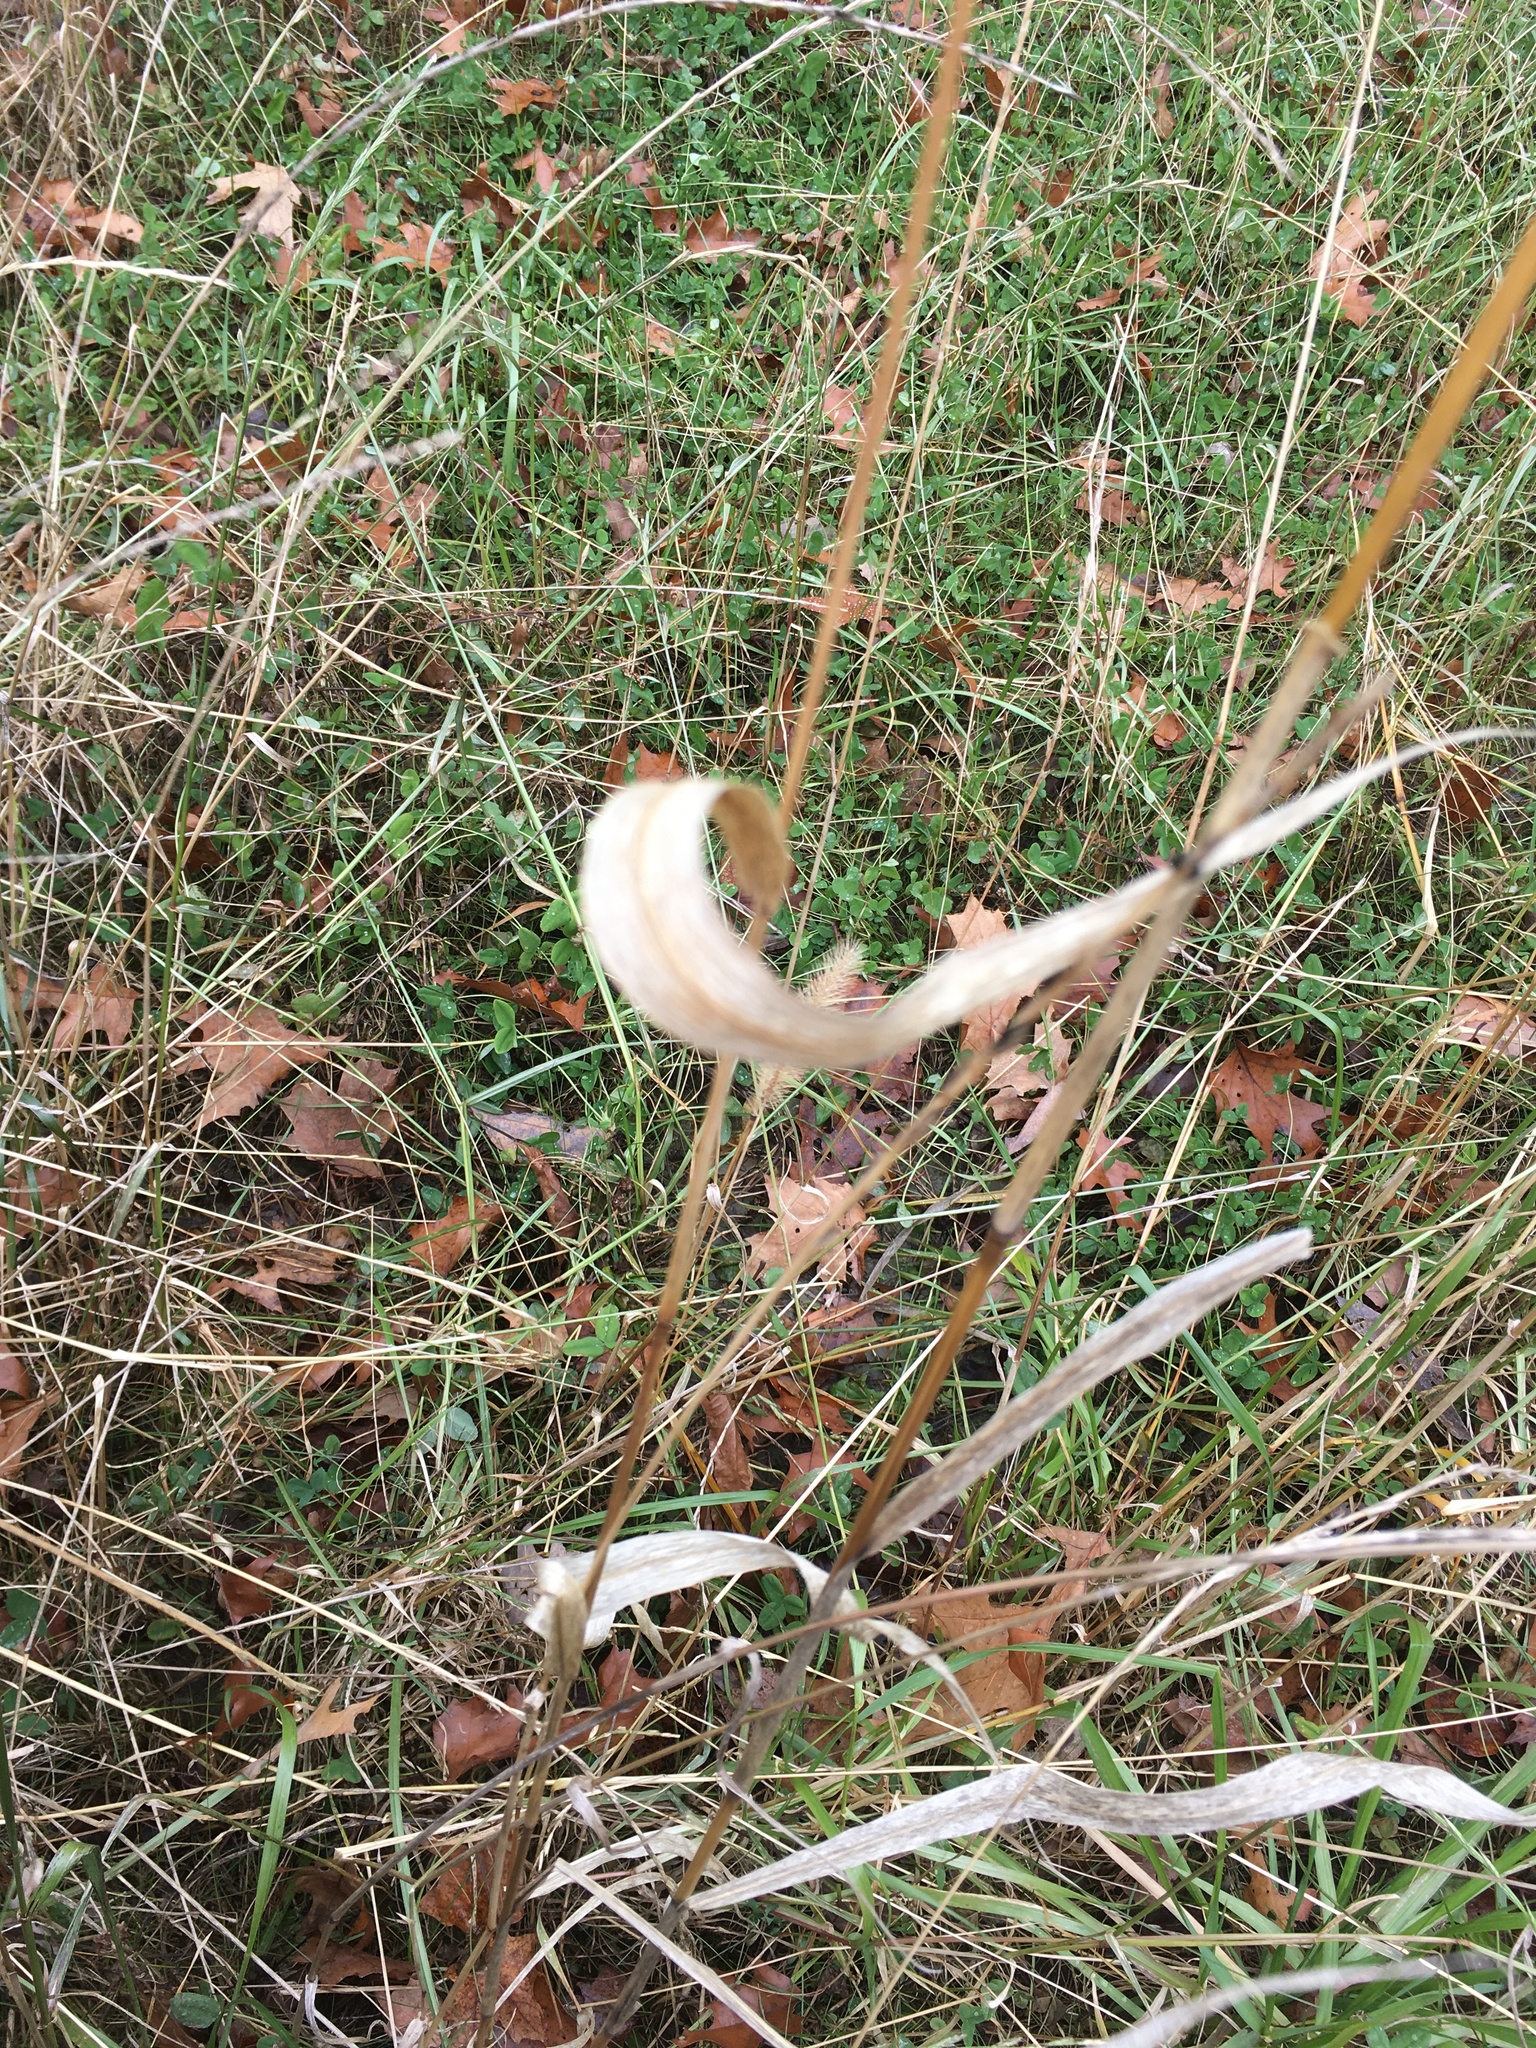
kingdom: Plantae
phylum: Tracheophyta
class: Liliopsida
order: Poales
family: Poaceae
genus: Setaria
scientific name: Setaria faberi
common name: Nodding bristle-grass
